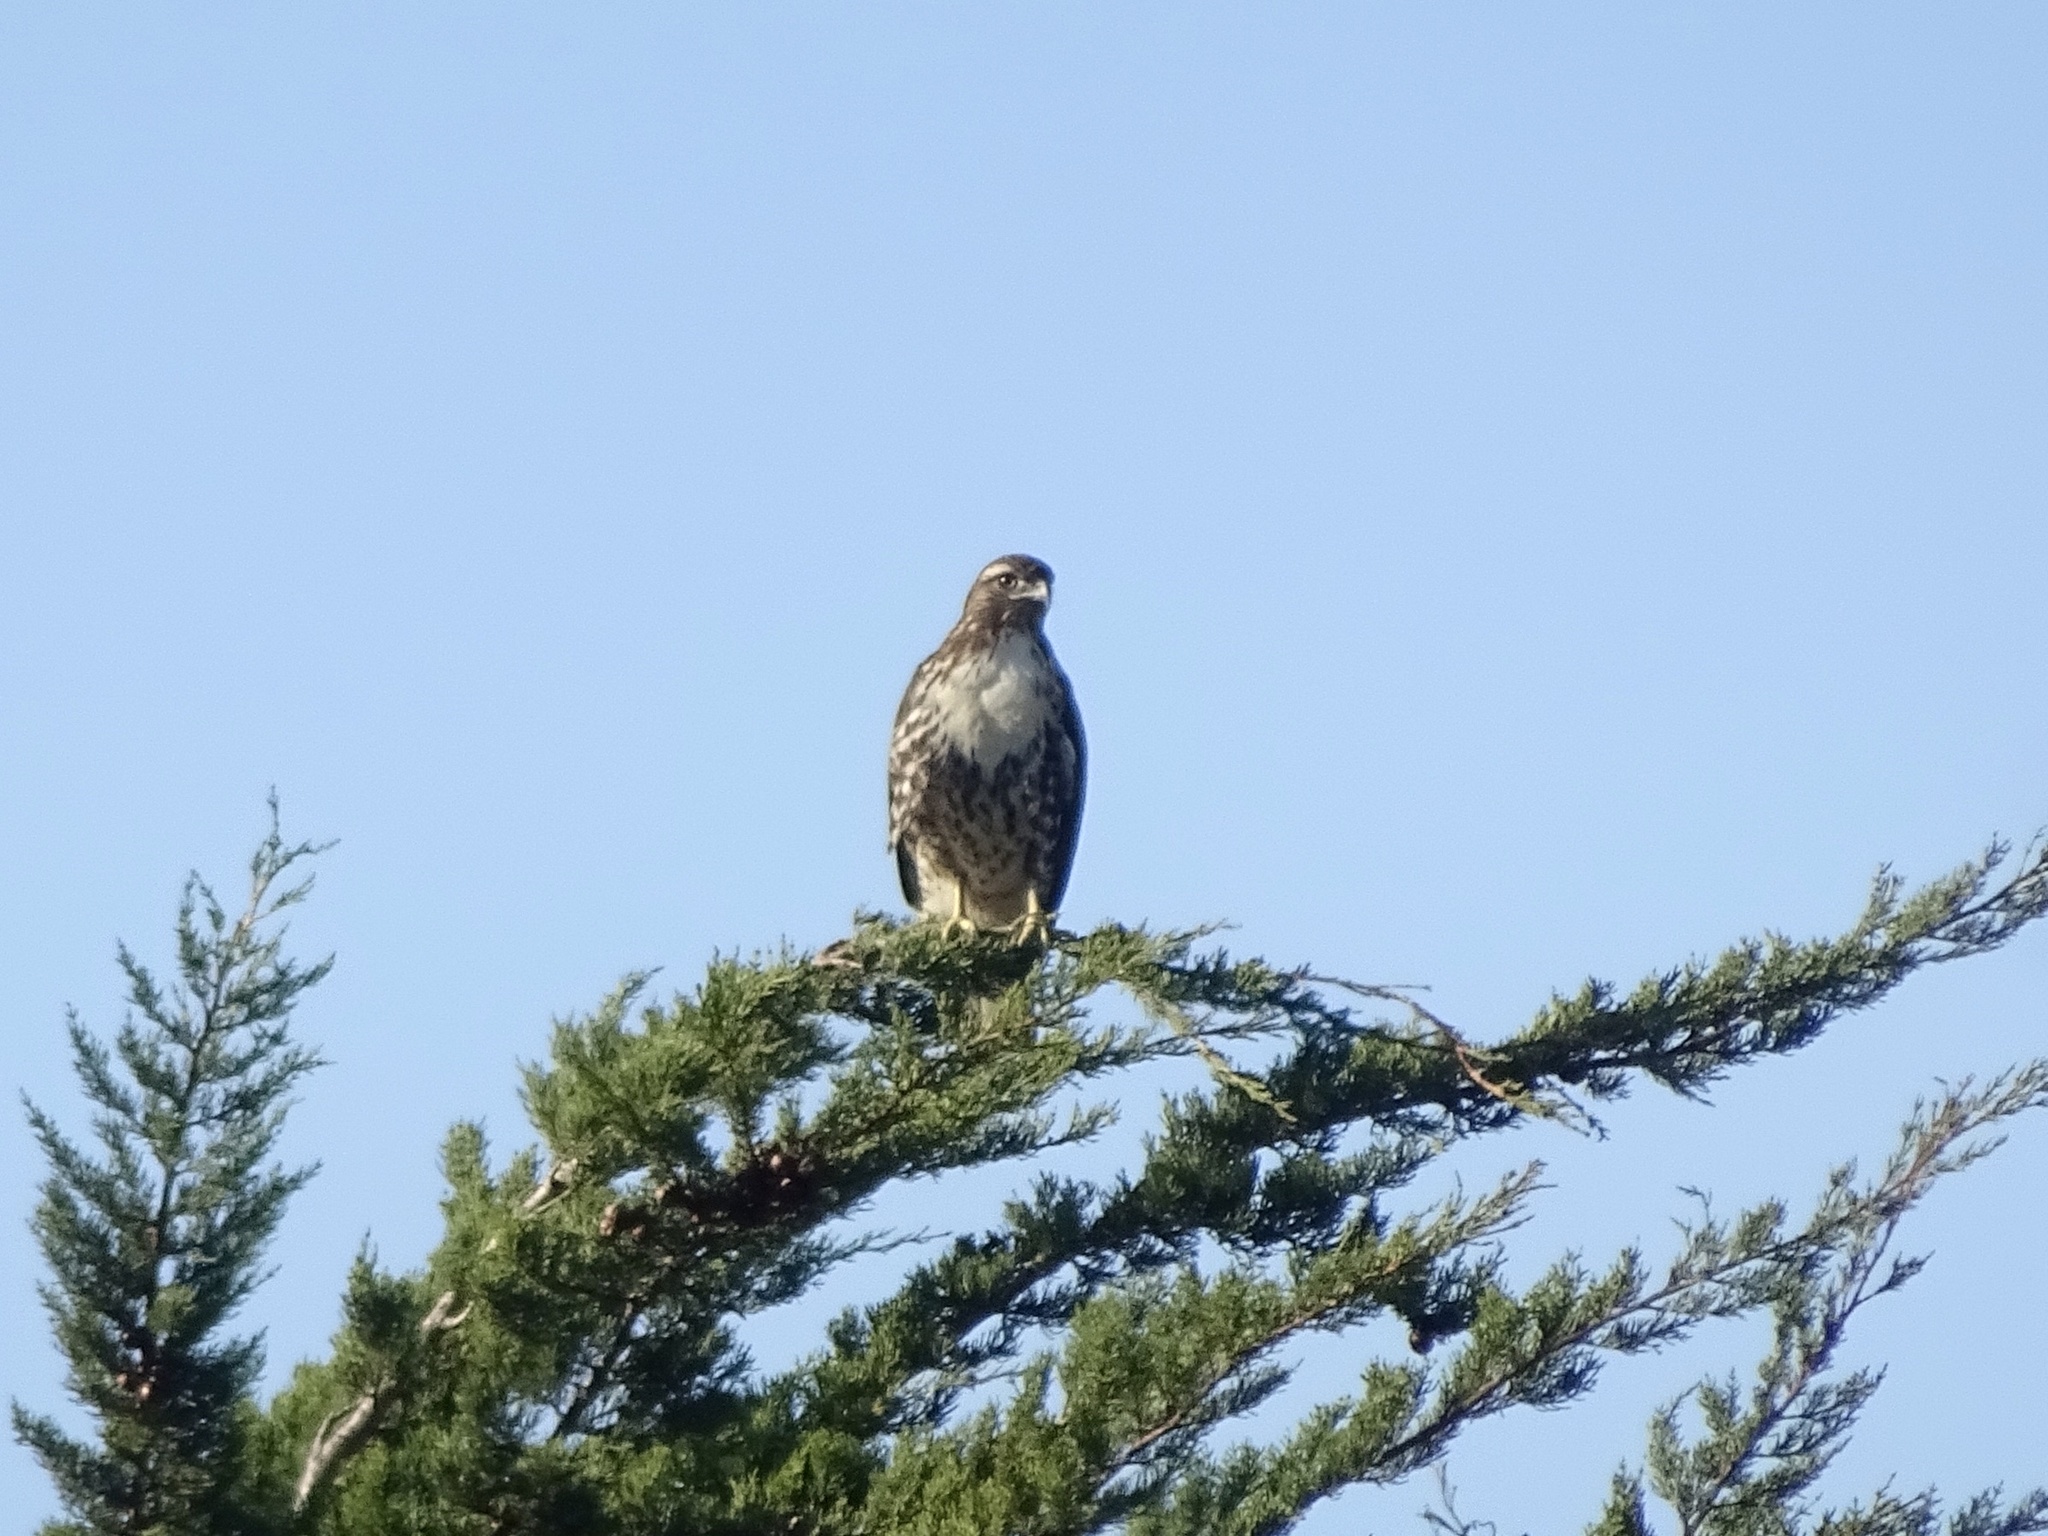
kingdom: Animalia
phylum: Chordata
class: Aves
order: Accipitriformes
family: Accipitridae
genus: Buteo
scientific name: Buteo jamaicensis
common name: Red-tailed hawk
